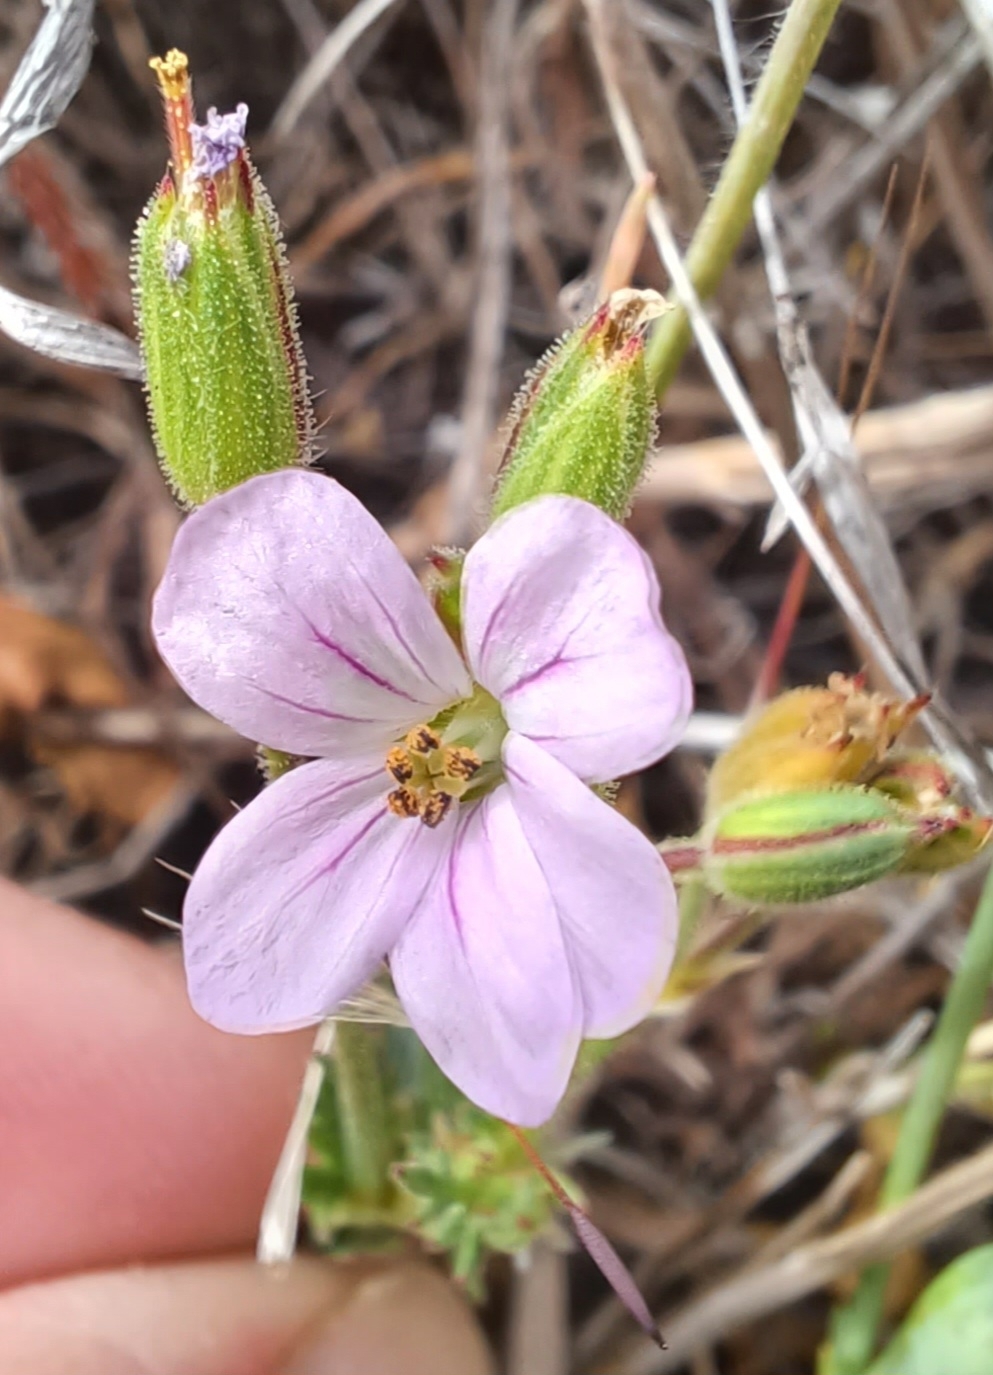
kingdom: Plantae
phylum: Tracheophyta
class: Magnoliopsida
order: Geraniales
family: Geraniaceae
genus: Erodium
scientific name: Erodium botrys
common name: Mediterranean stork's-bill
